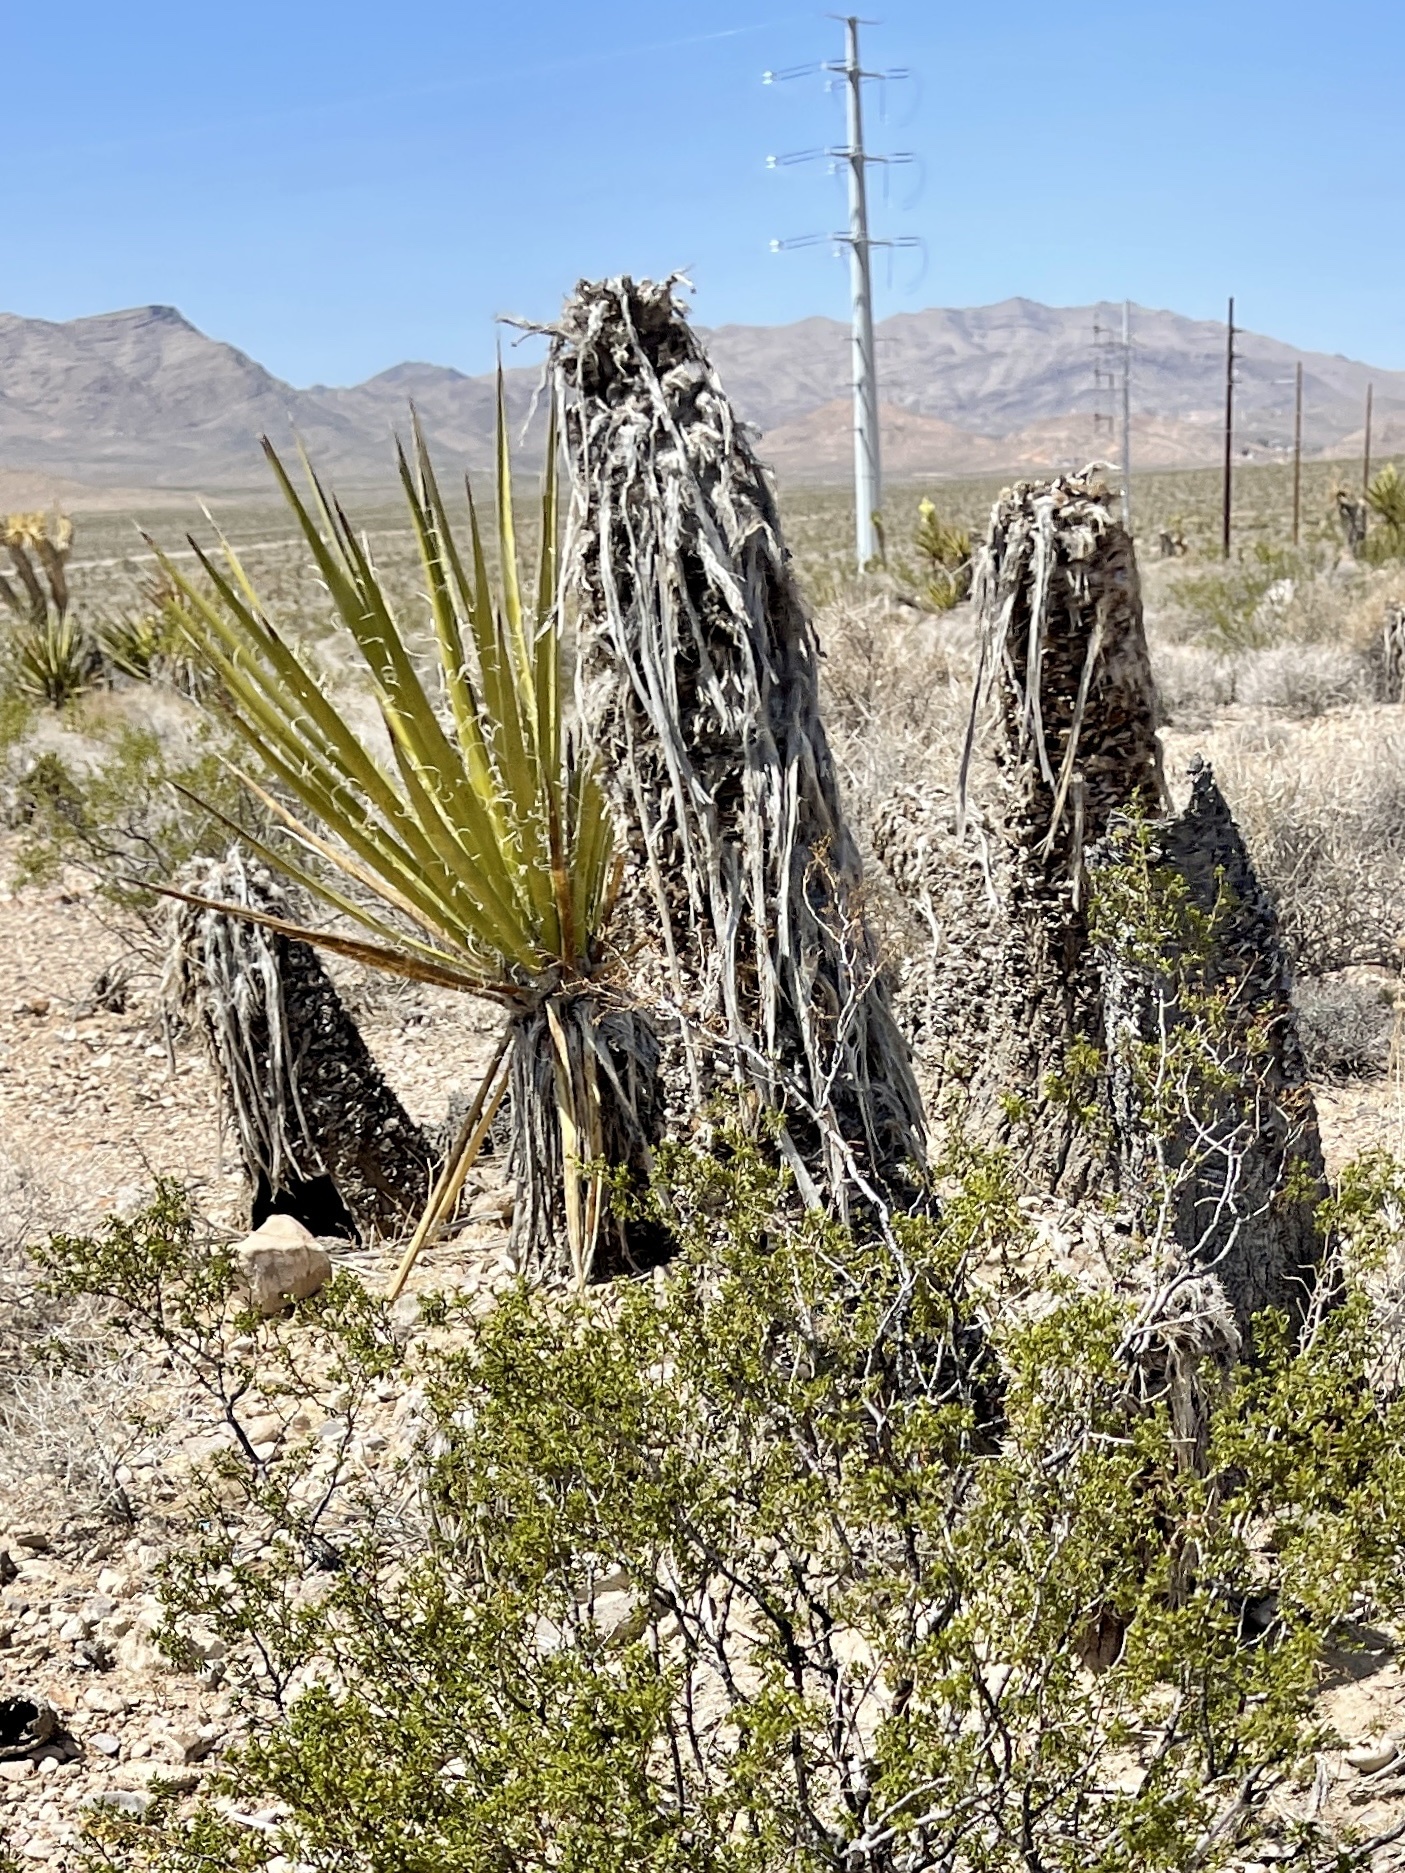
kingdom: Plantae
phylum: Tracheophyta
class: Liliopsida
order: Asparagales
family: Asparagaceae
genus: Yucca
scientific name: Yucca schidigera
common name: Mojave yucca
